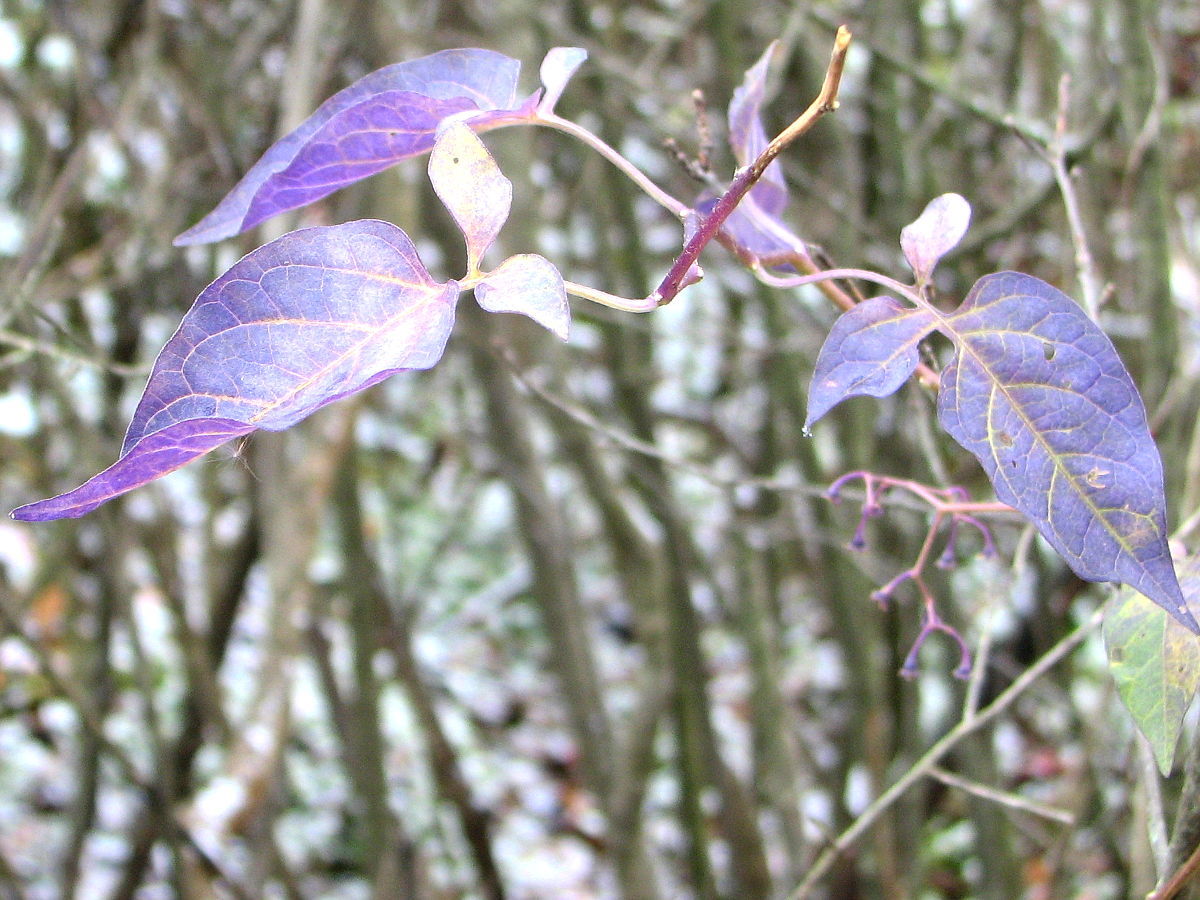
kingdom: Plantae
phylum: Tracheophyta
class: Magnoliopsida
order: Solanales
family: Solanaceae
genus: Solanum
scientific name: Solanum dulcamara
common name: Climbing nightshade
